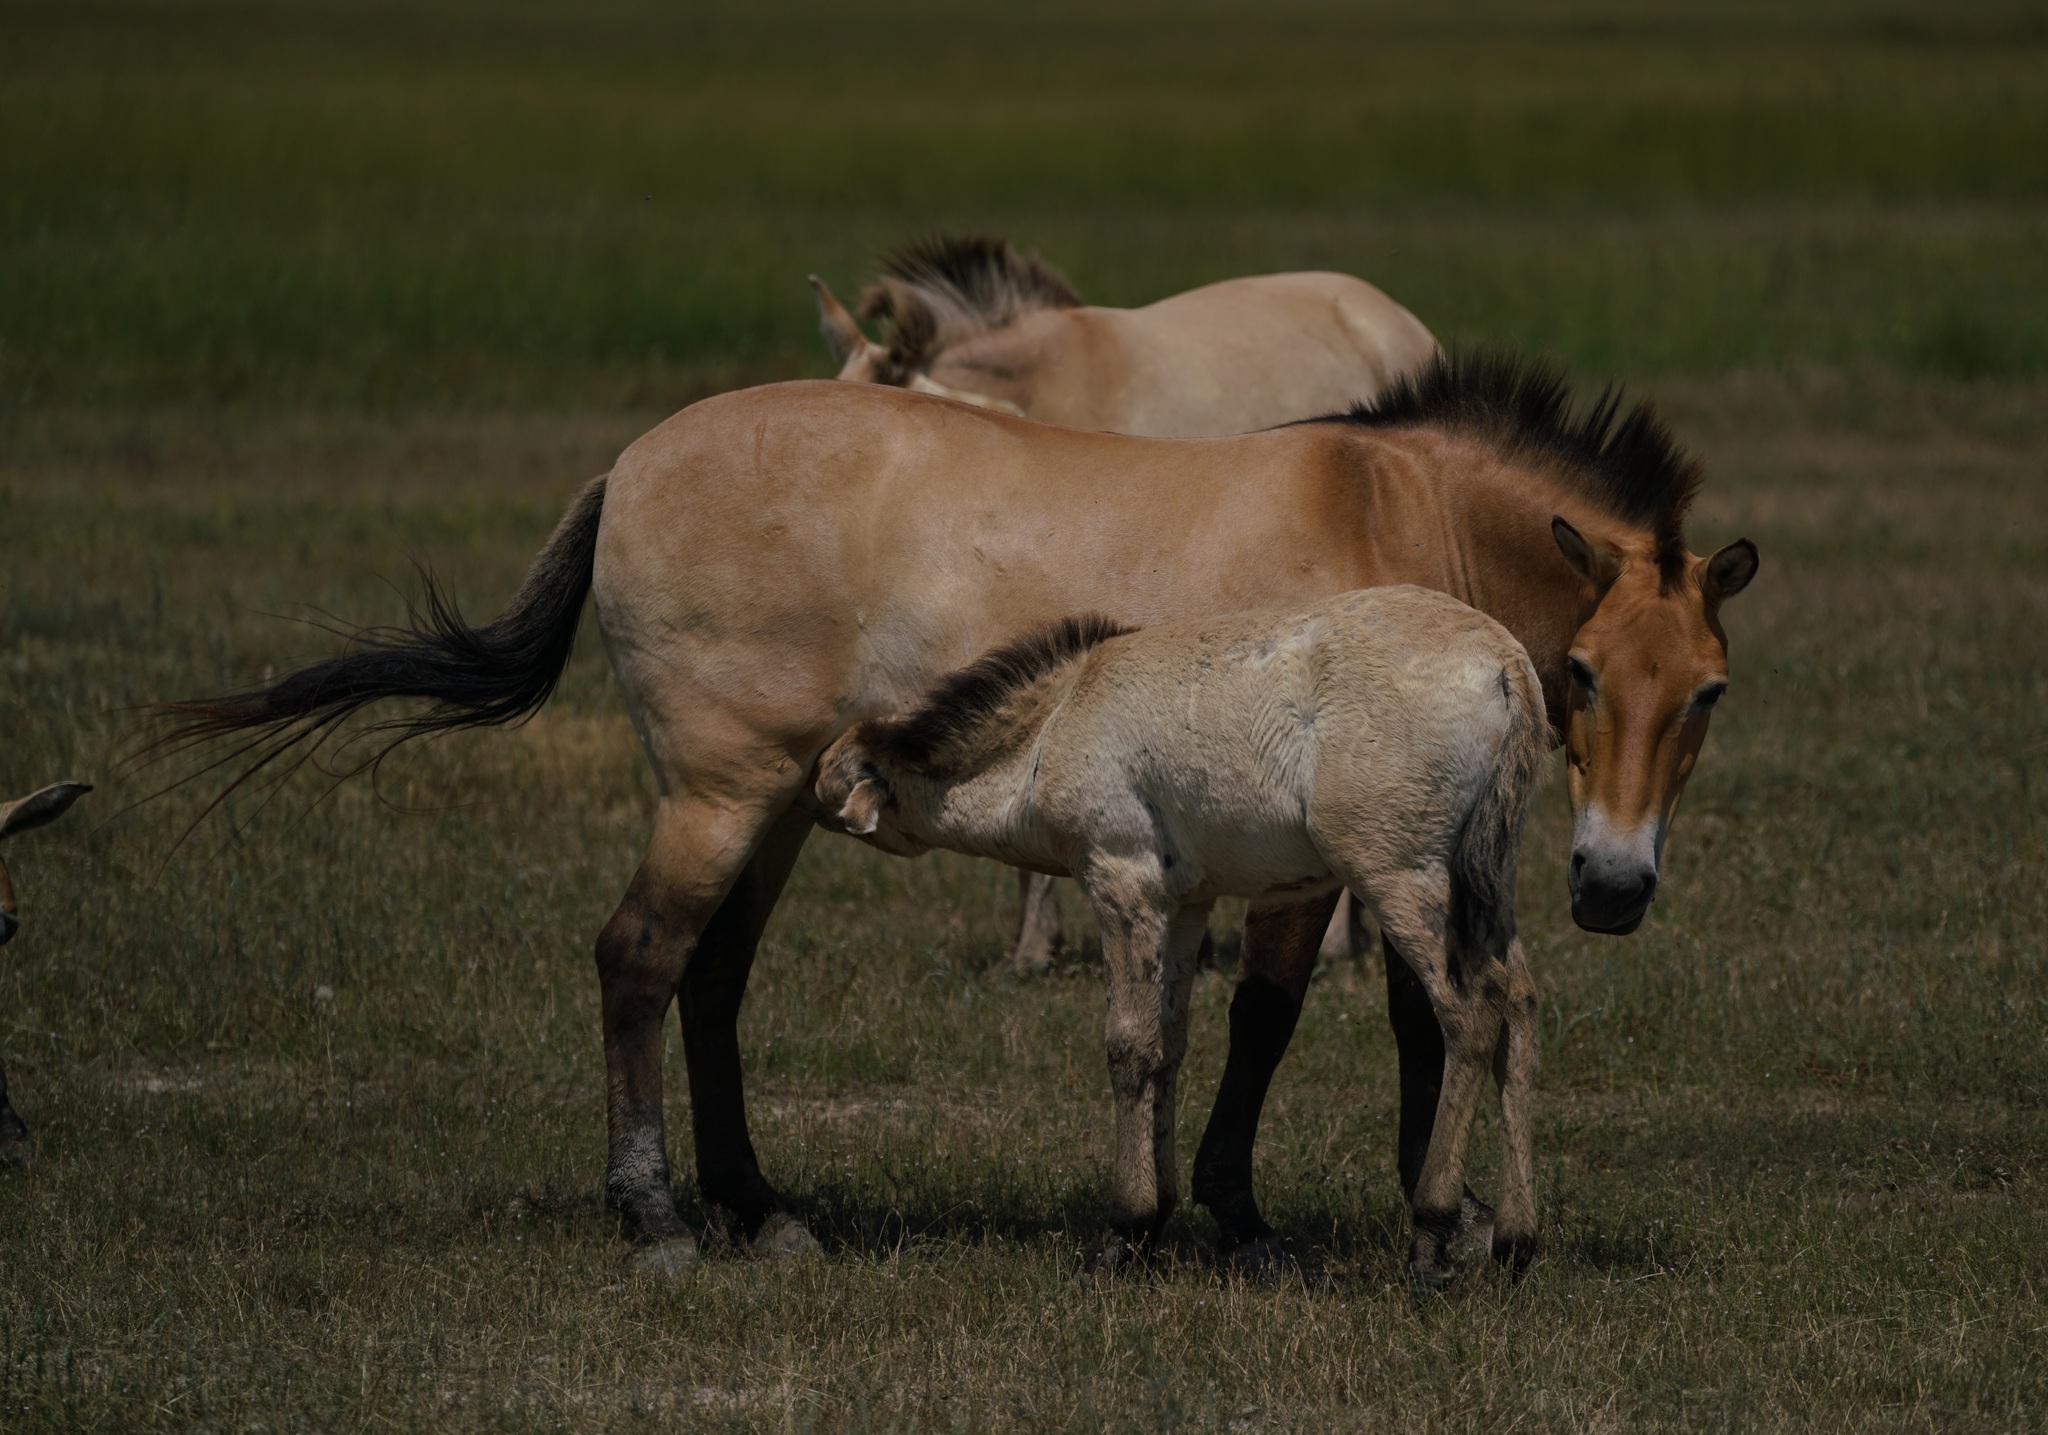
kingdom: Animalia
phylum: Chordata
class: Mammalia
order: Perissodactyla
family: Equidae
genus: Equus
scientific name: Equus przewalskii
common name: Przewalski's horse
